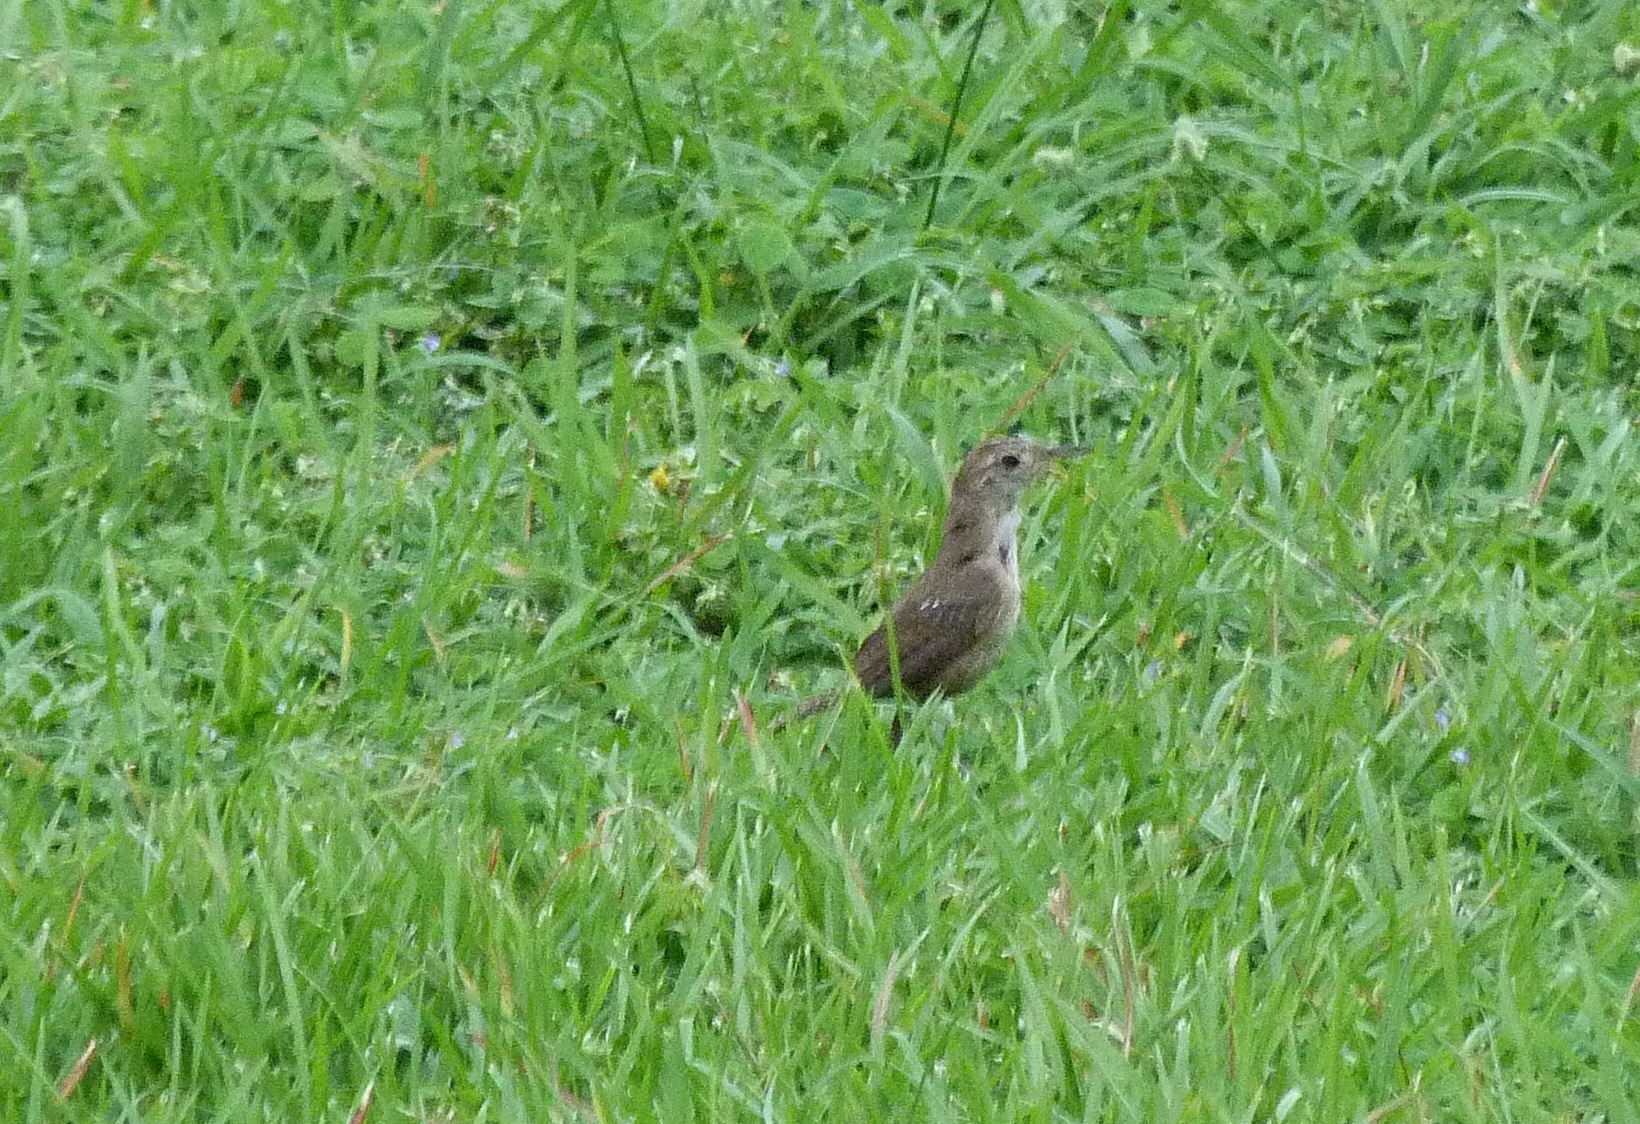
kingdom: Animalia
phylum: Chordata
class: Aves
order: Passeriformes
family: Troglodytidae
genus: Troglodytes
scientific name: Troglodytes aedon
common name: House wren
